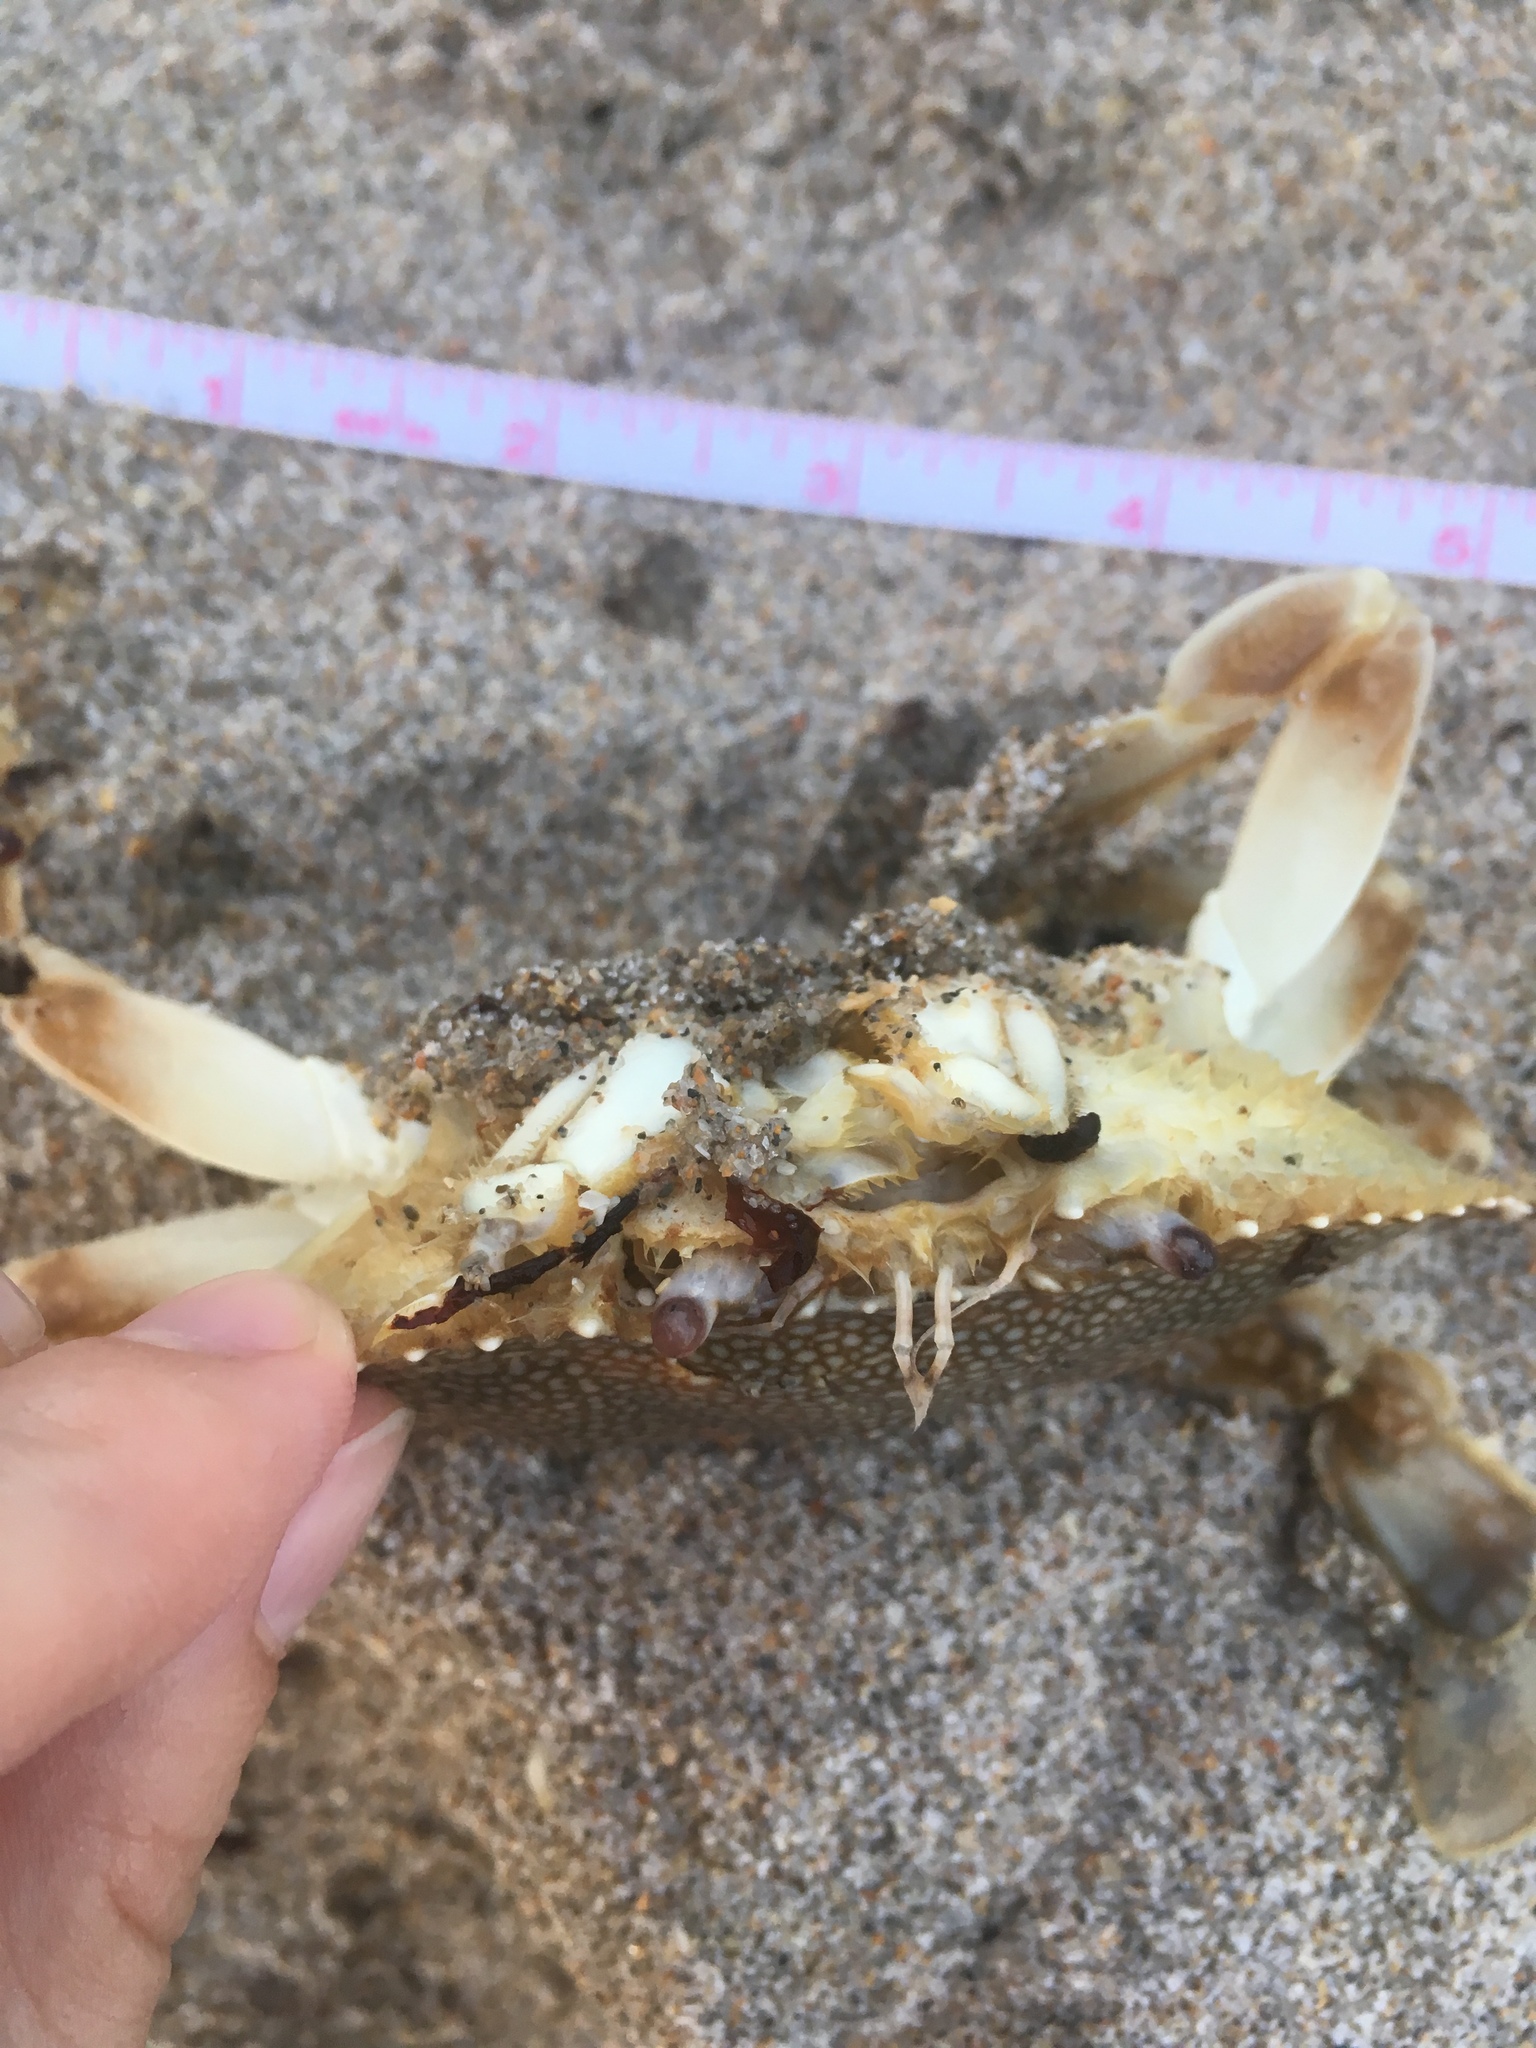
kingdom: Animalia
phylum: Arthropoda
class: Malacostraca
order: Decapoda
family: Portunidae
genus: Arenaeus
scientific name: Arenaeus cribrarius
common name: Speckled crab
